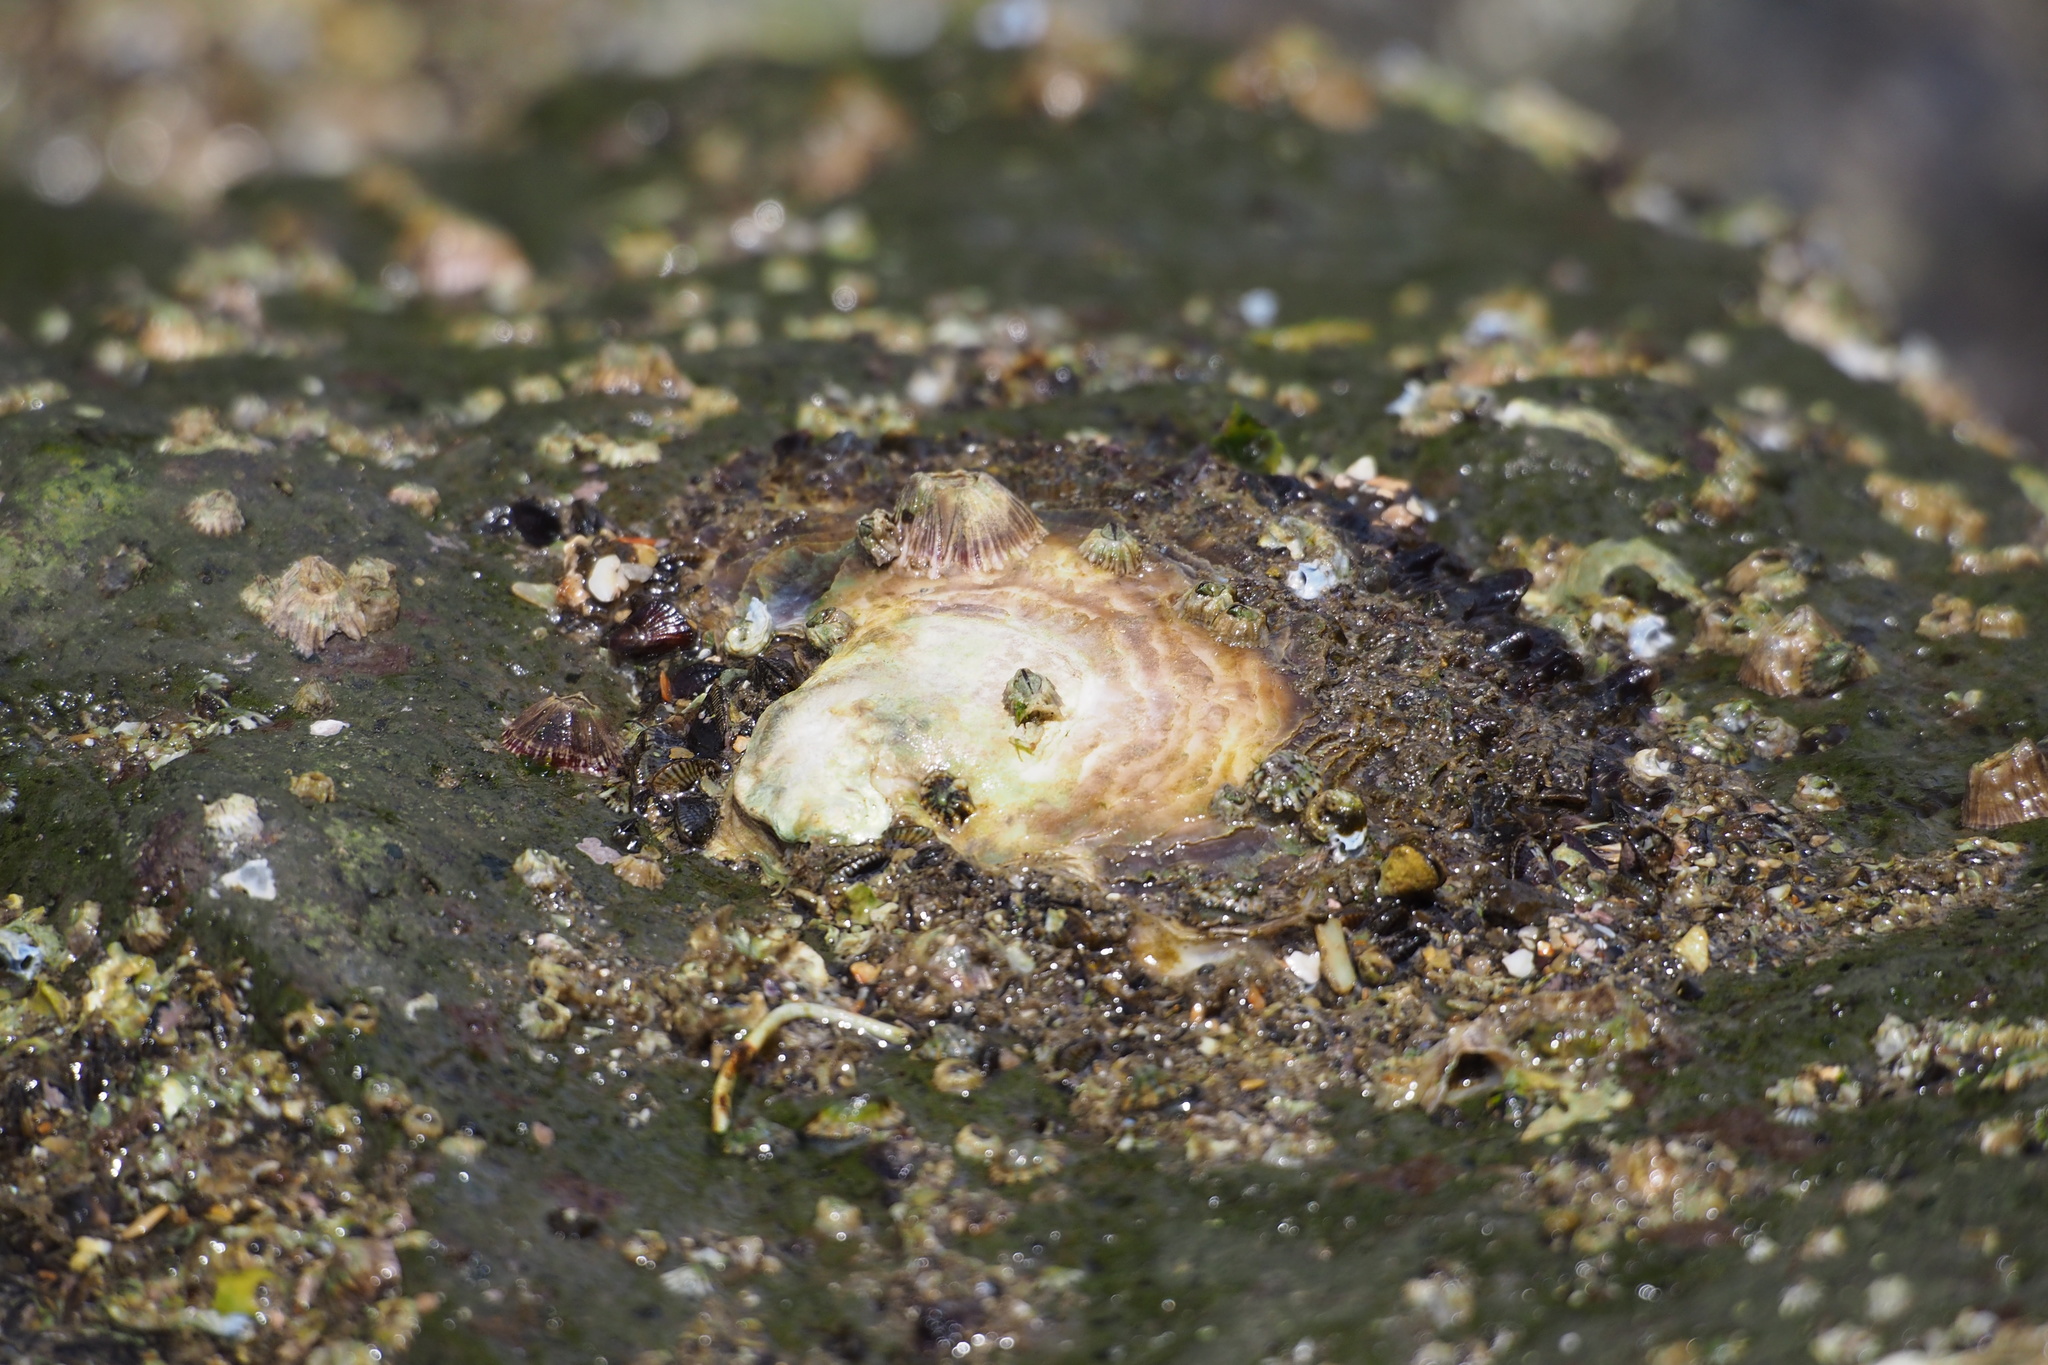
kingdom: Animalia
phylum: Mollusca
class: Bivalvia
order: Ostreida
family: Ostreidae
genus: Saccostrea
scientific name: Saccostrea kegaki
